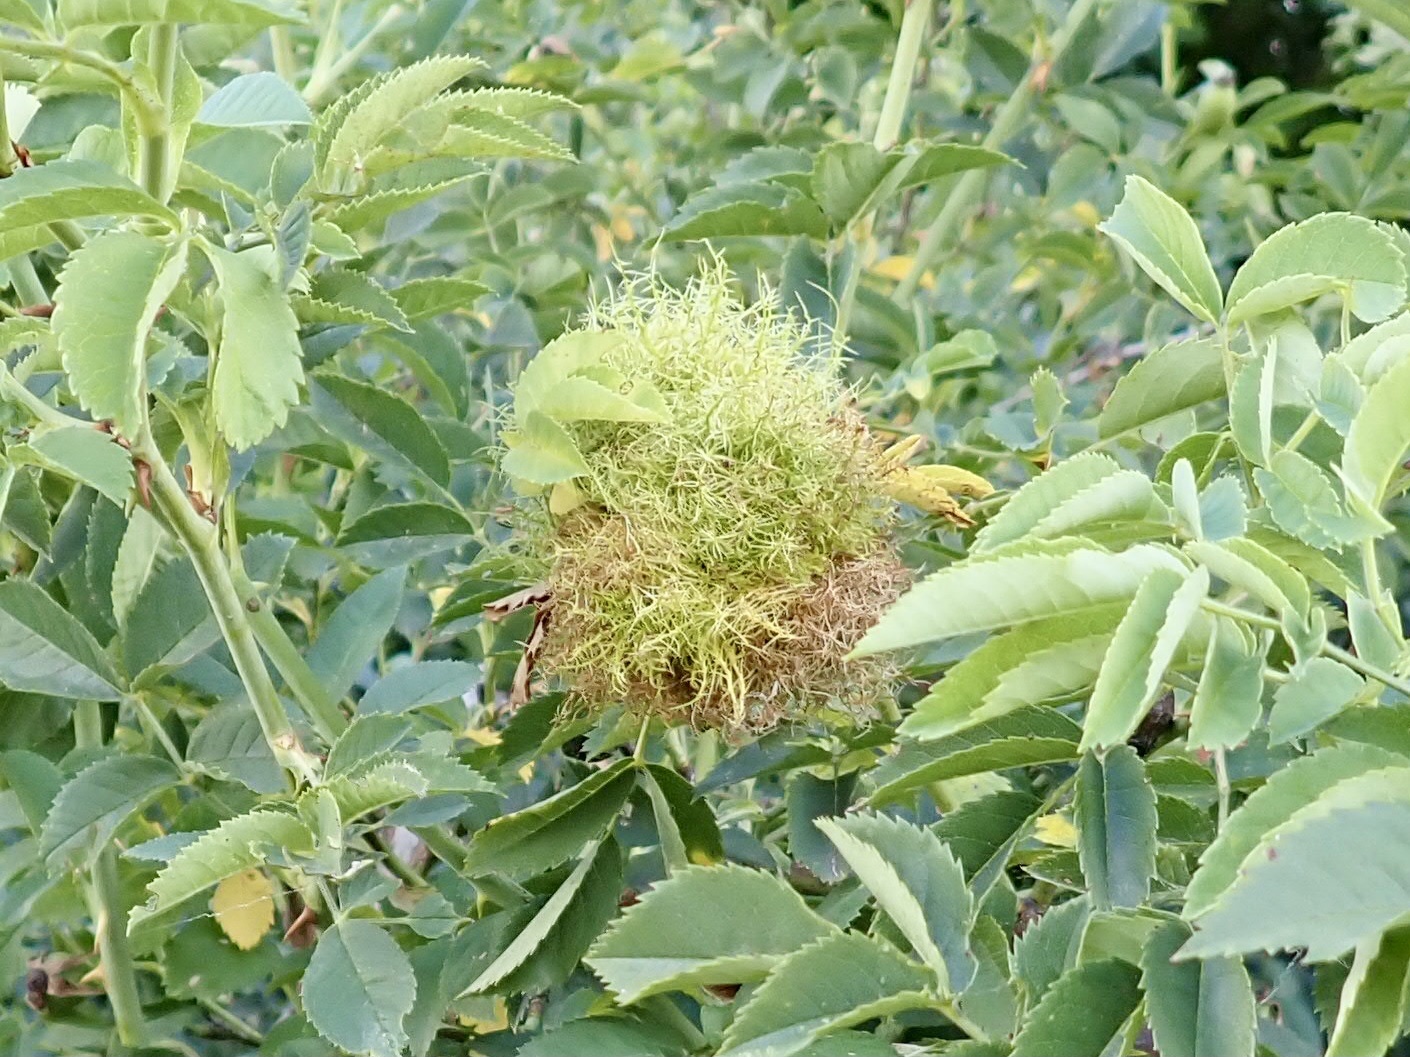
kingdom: Animalia
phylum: Arthropoda
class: Insecta
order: Hymenoptera
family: Cynipidae
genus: Diplolepis
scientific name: Diplolepis rosae
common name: Bedeguar gall
